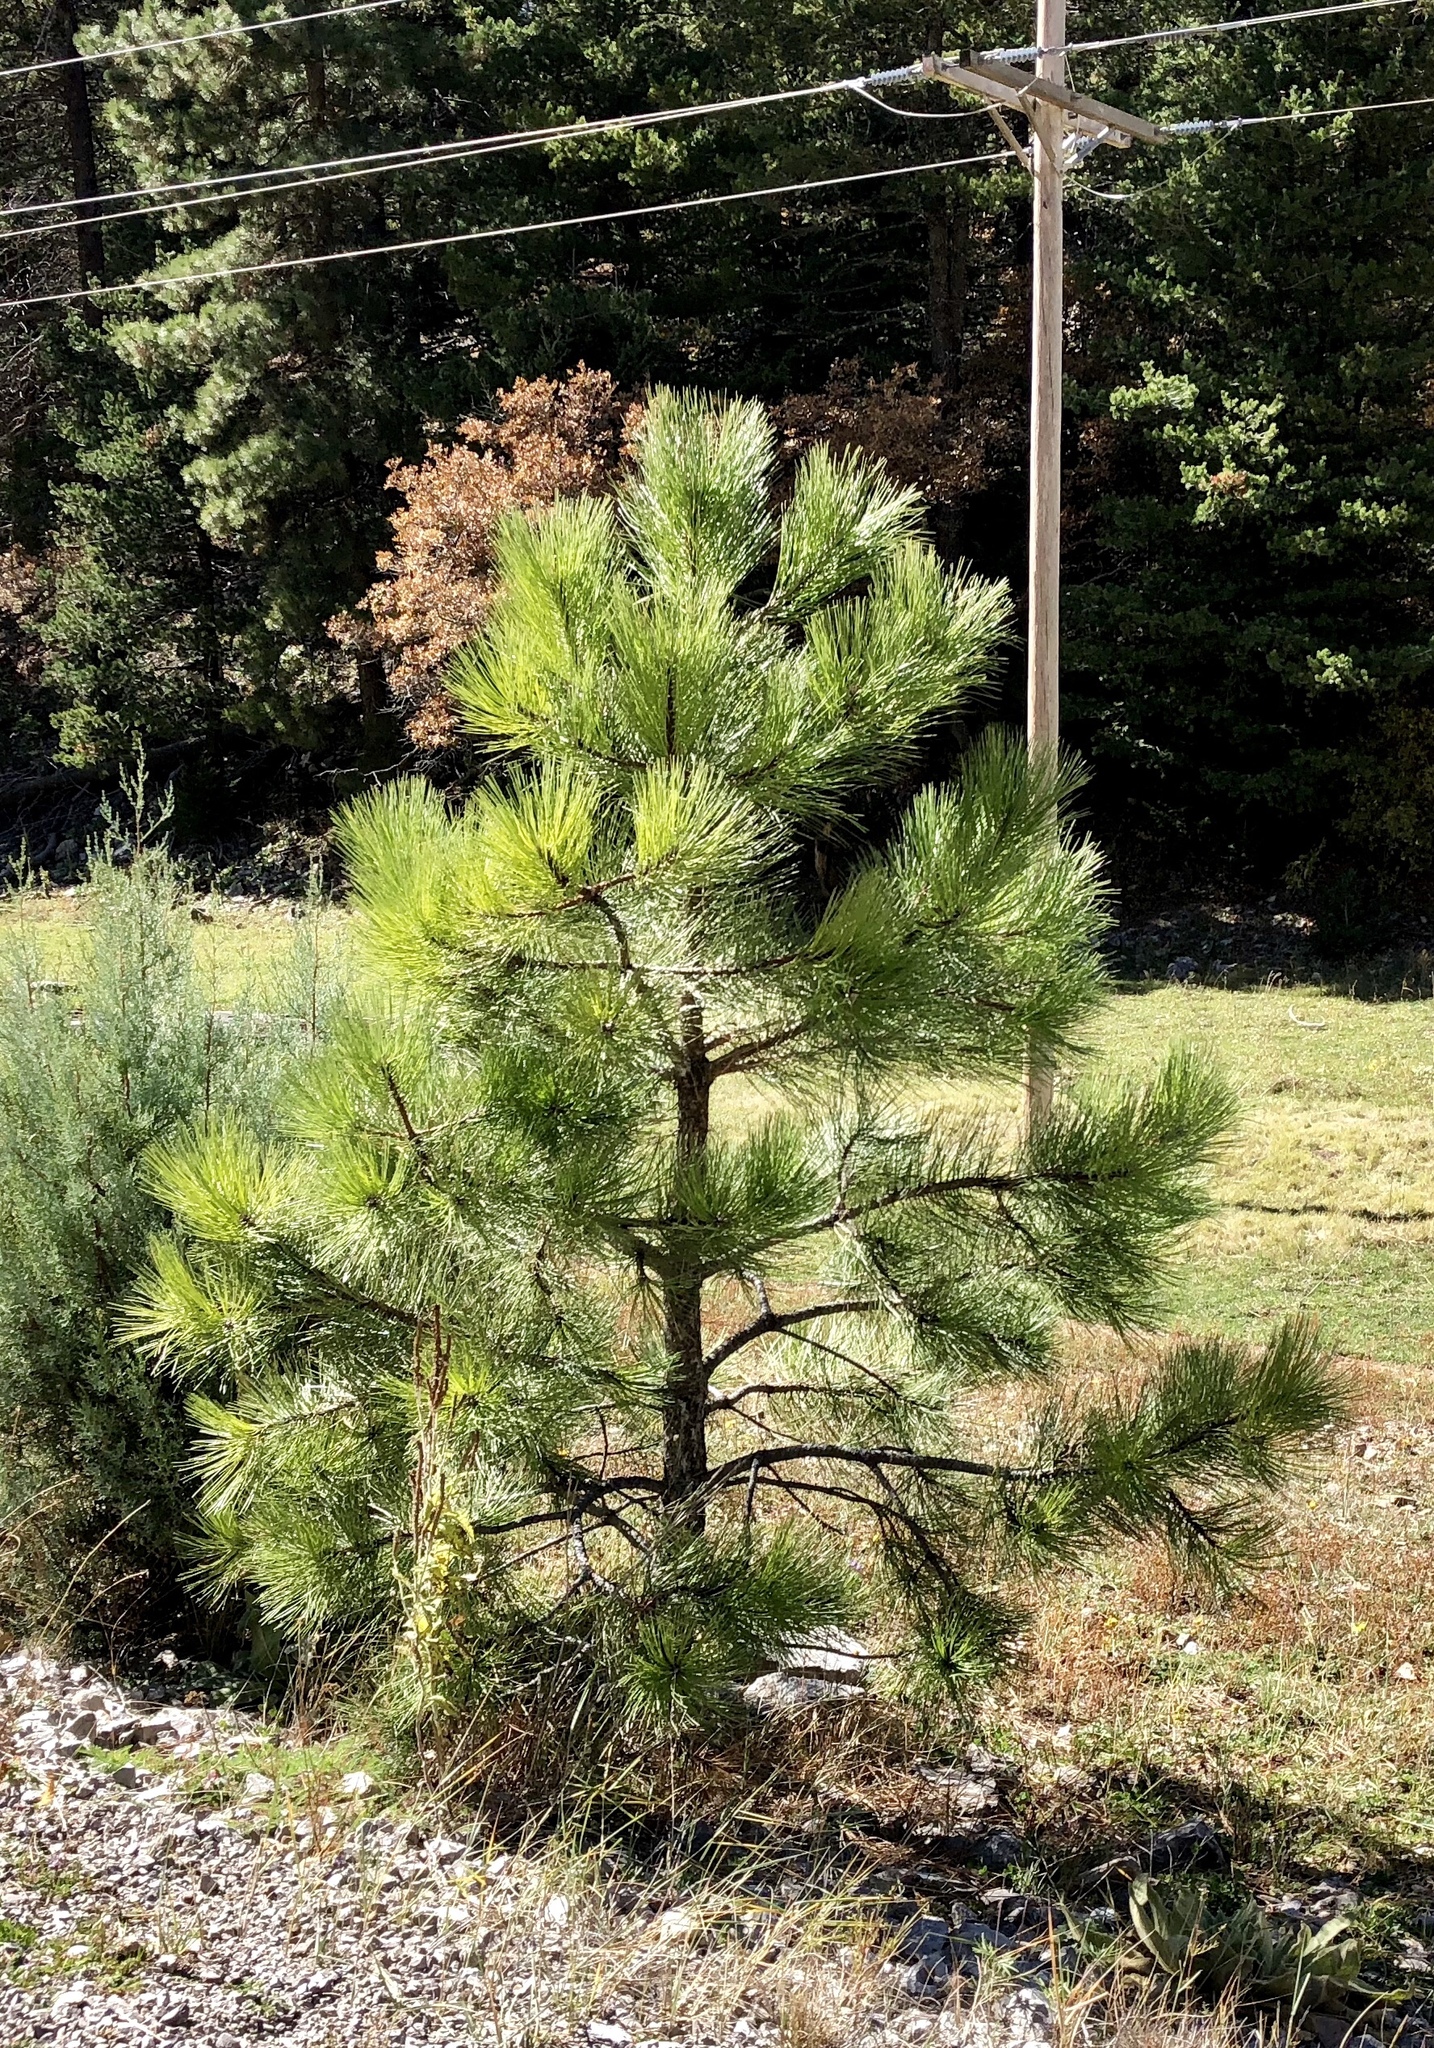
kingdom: Plantae
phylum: Tracheophyta
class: Pinopsida
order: Pinales
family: Pinaceae
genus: Pinus
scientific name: Pinus ponderosa
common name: Western yellow-pine
